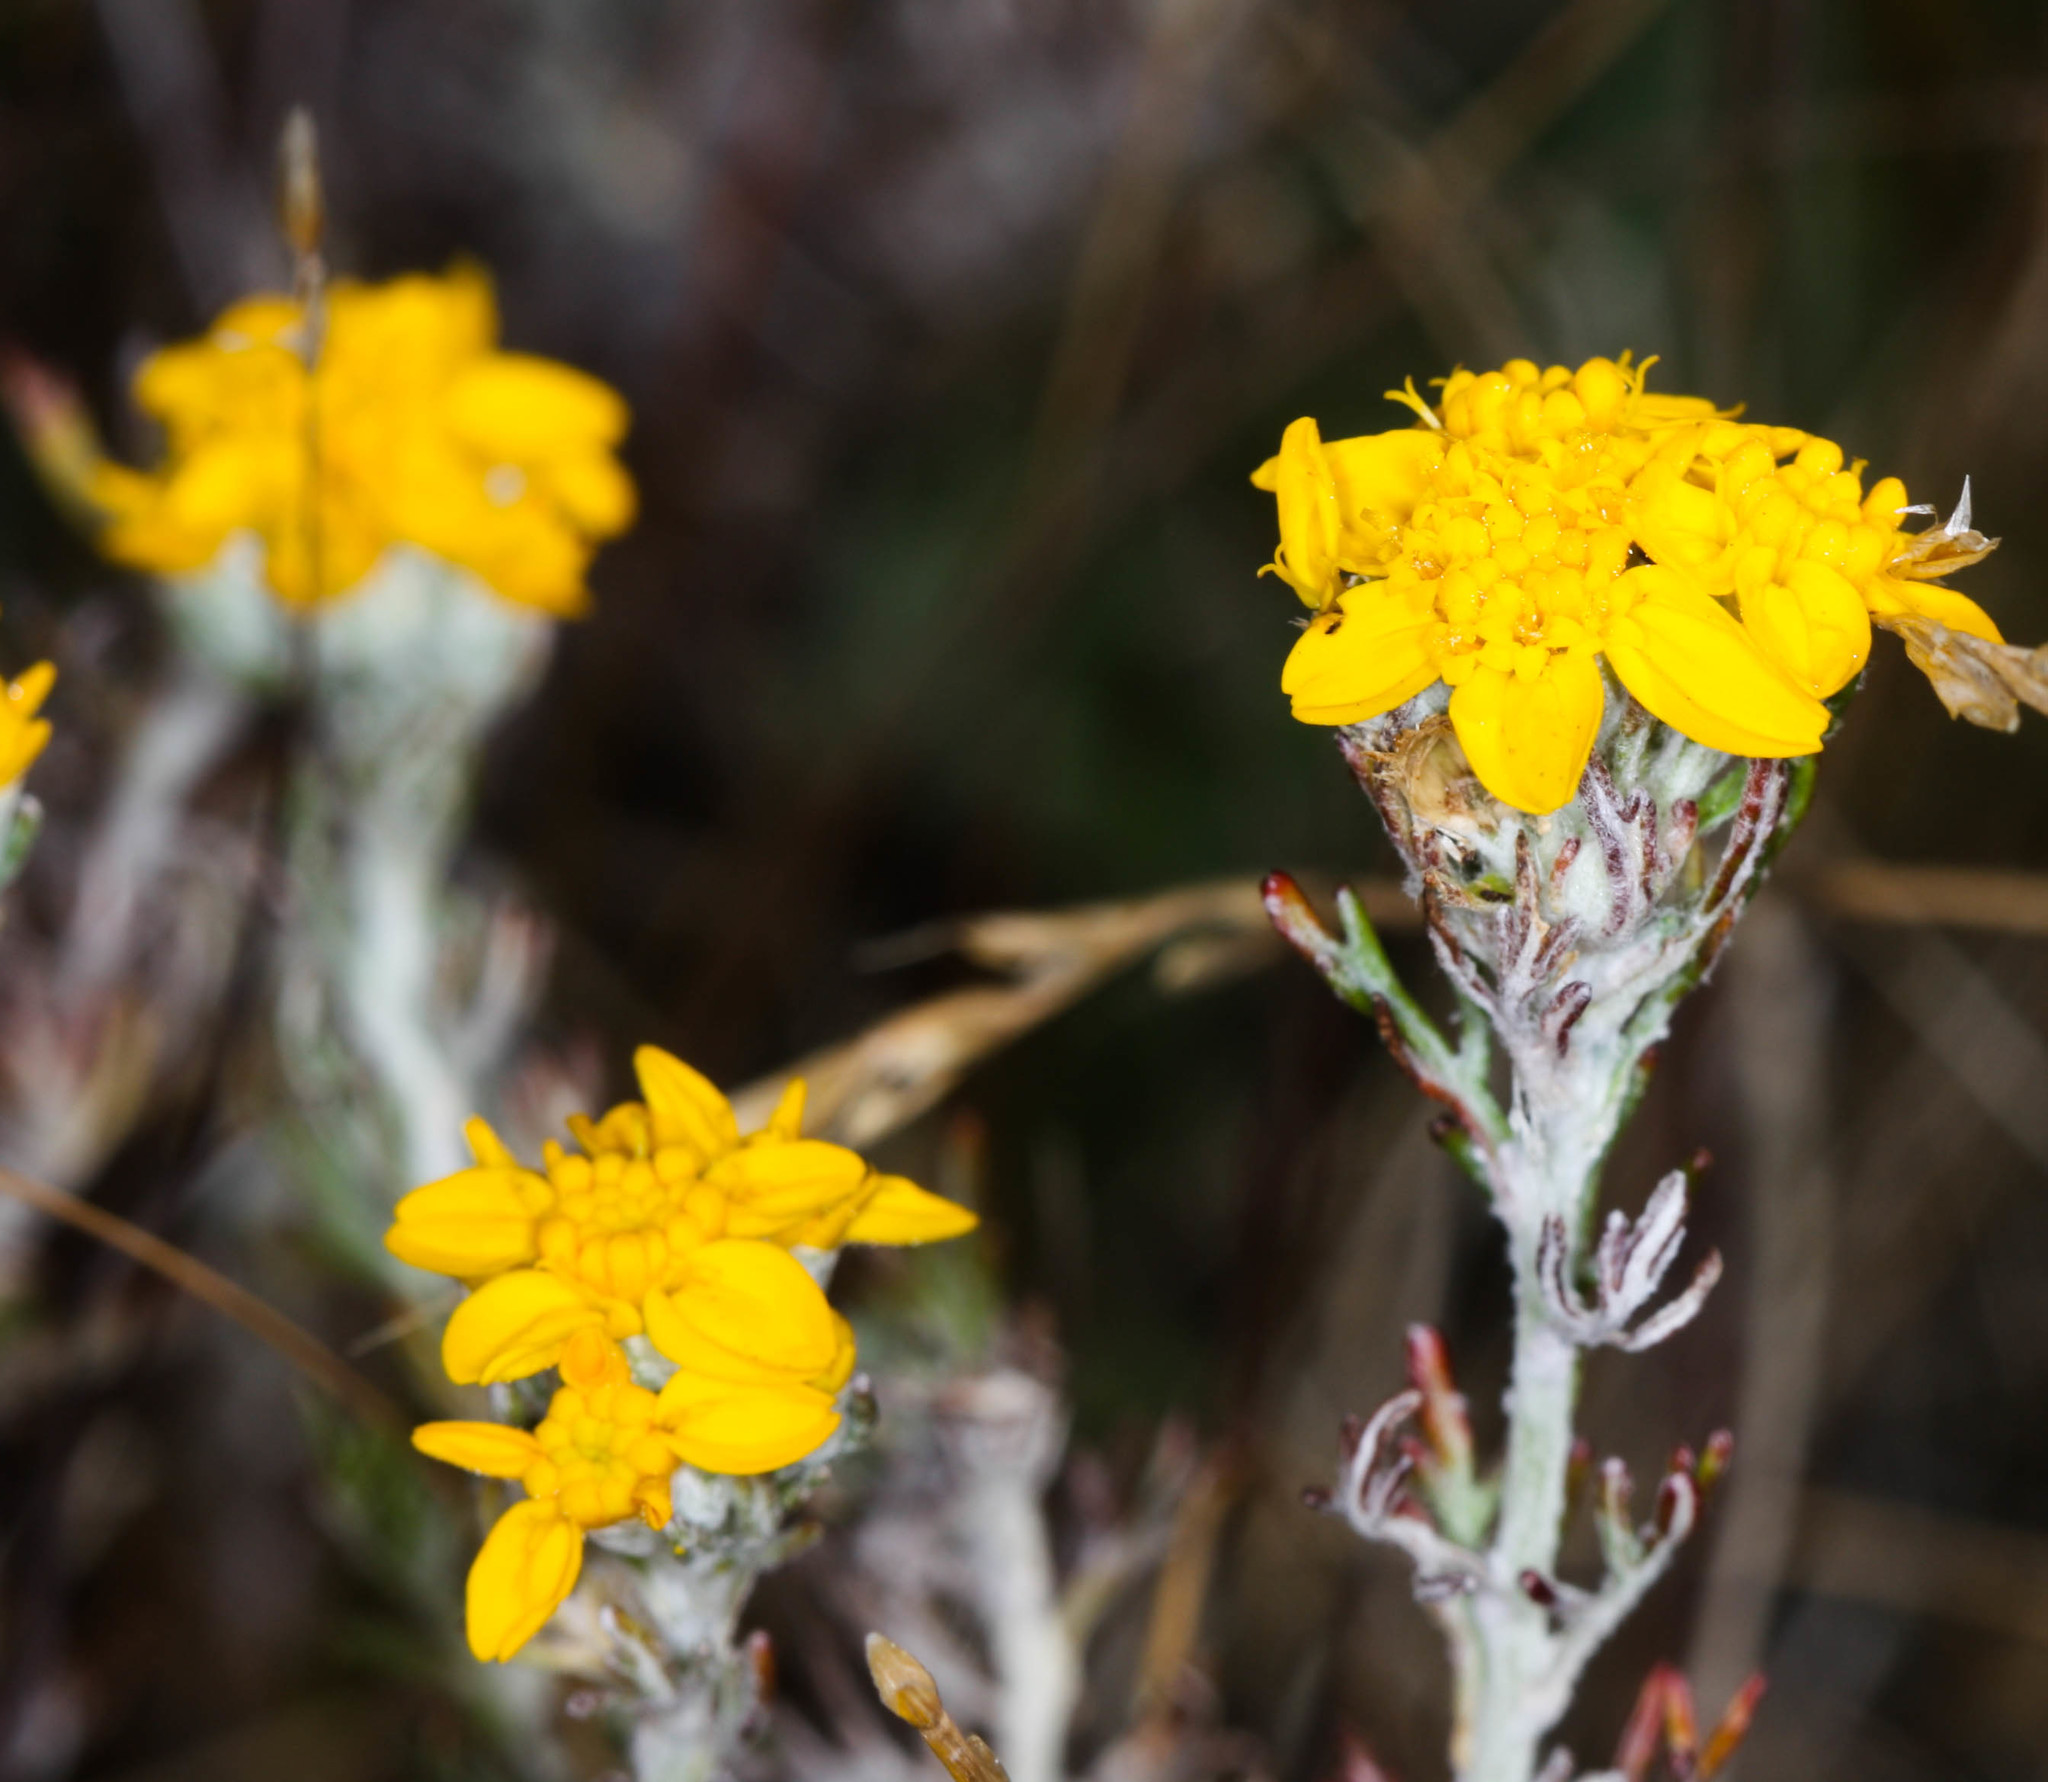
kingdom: Plantae
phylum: Tracheophyta
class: Magnoliopsida
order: Asterales
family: Asteraceae
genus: Eriophyllum
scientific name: Eriophyllum confertiflorum
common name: Golden-yarrow
